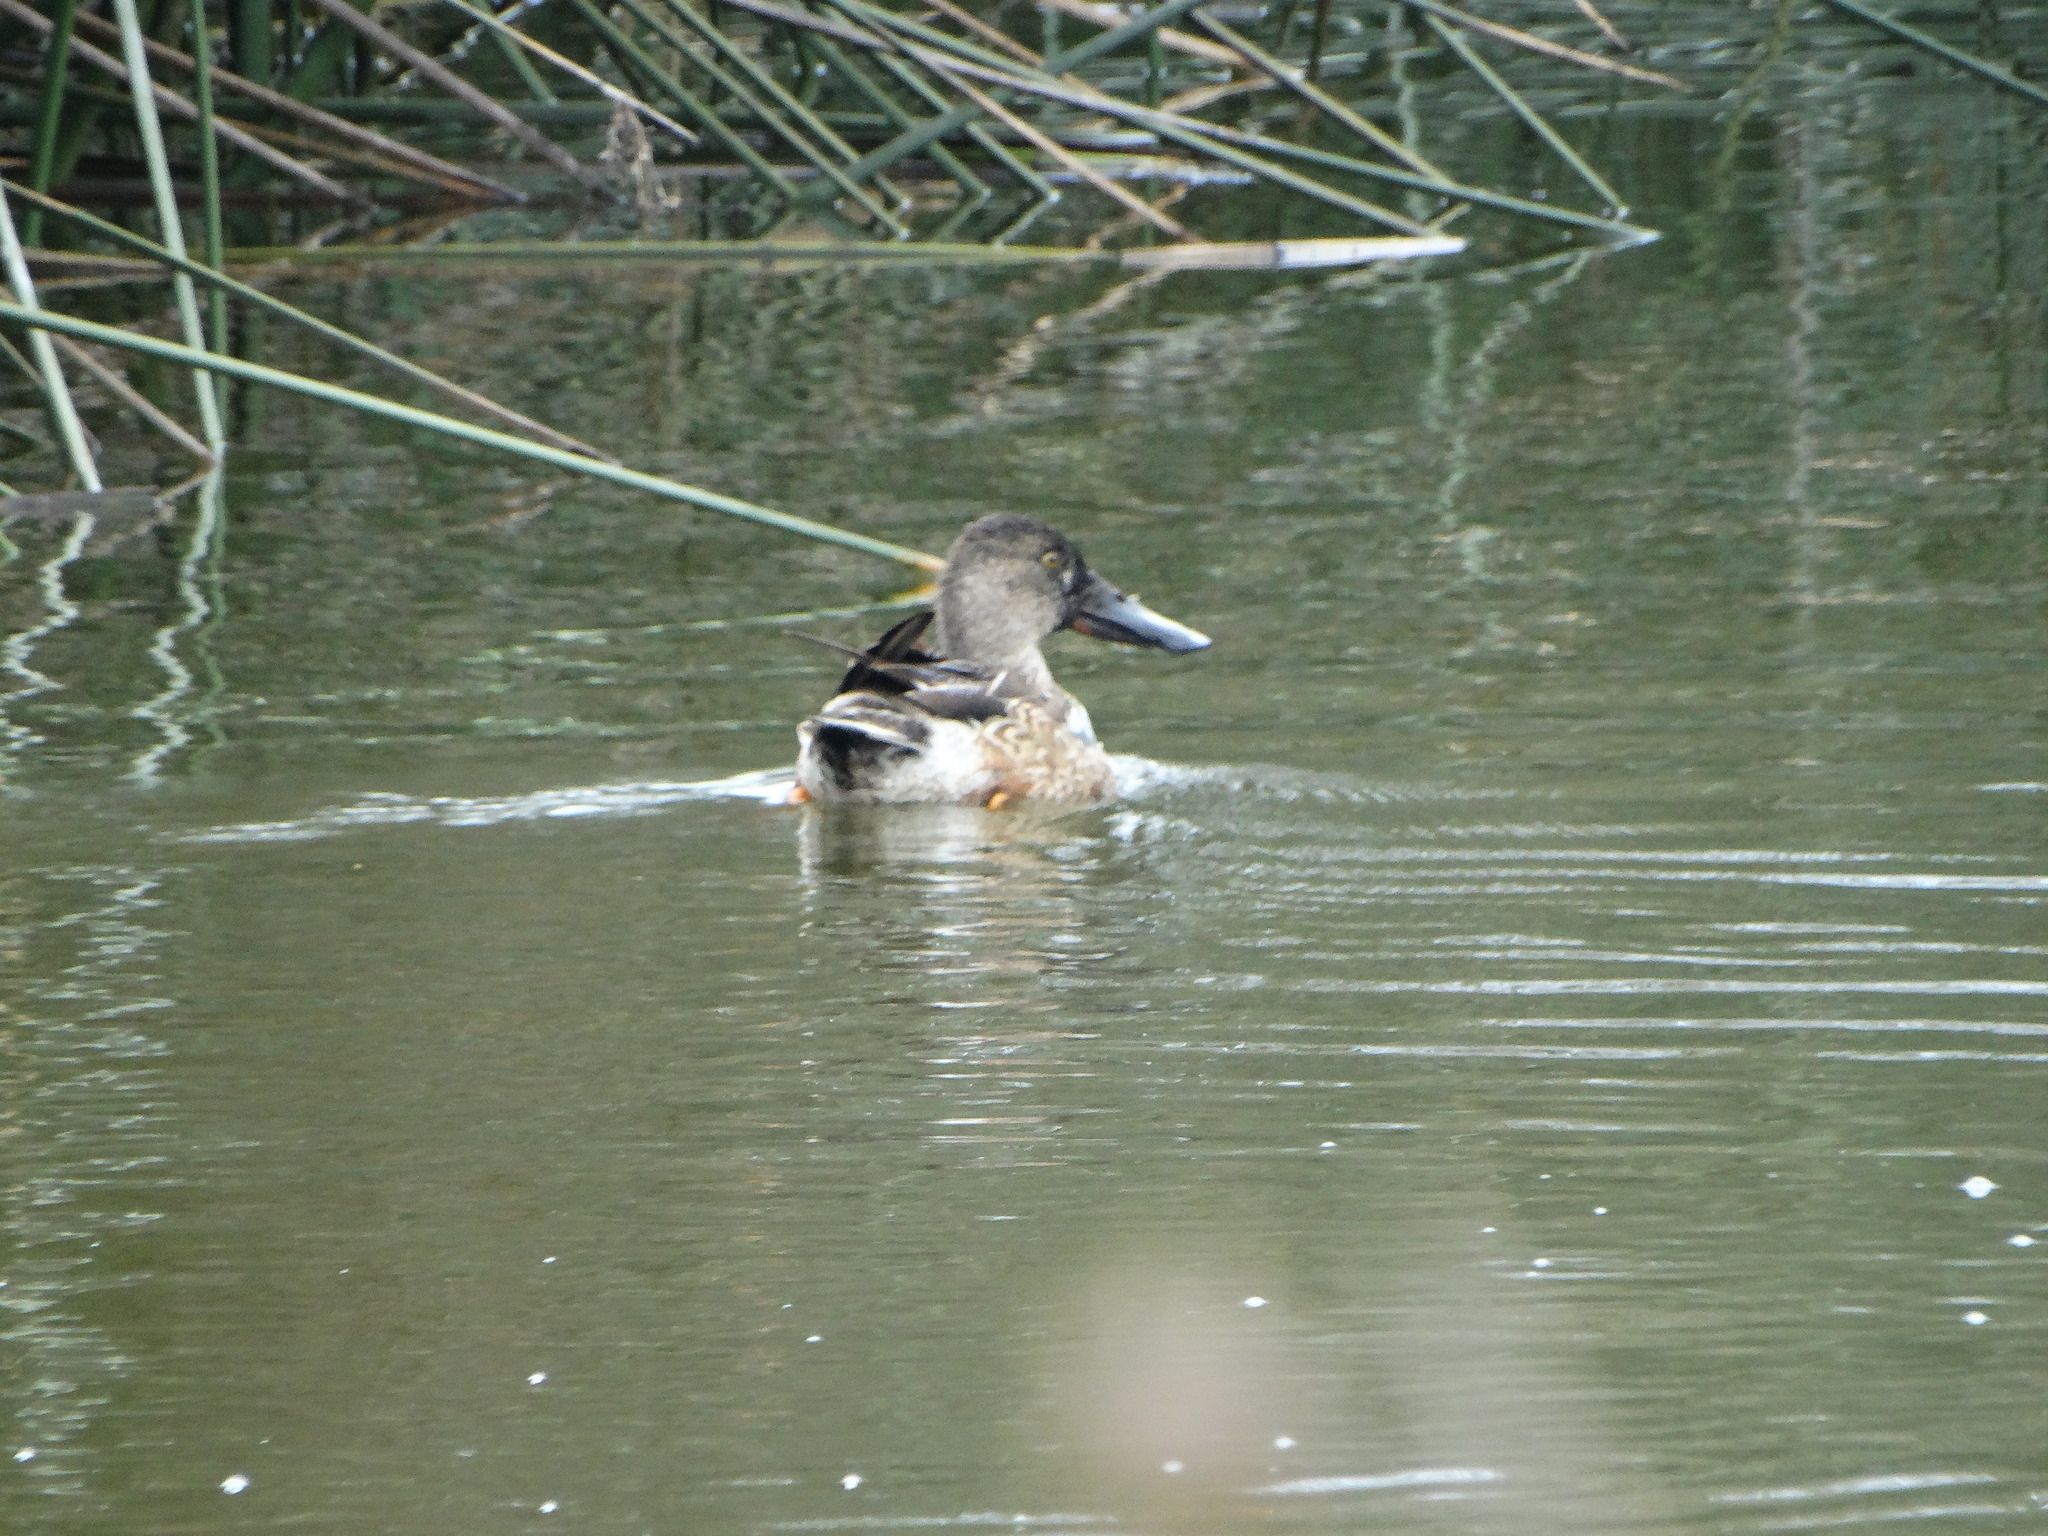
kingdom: Animalia
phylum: Chordata
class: Aves
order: Anseriformes
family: Anatidae
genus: Spatula
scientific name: Spatula clypeata
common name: Northern shoveler
